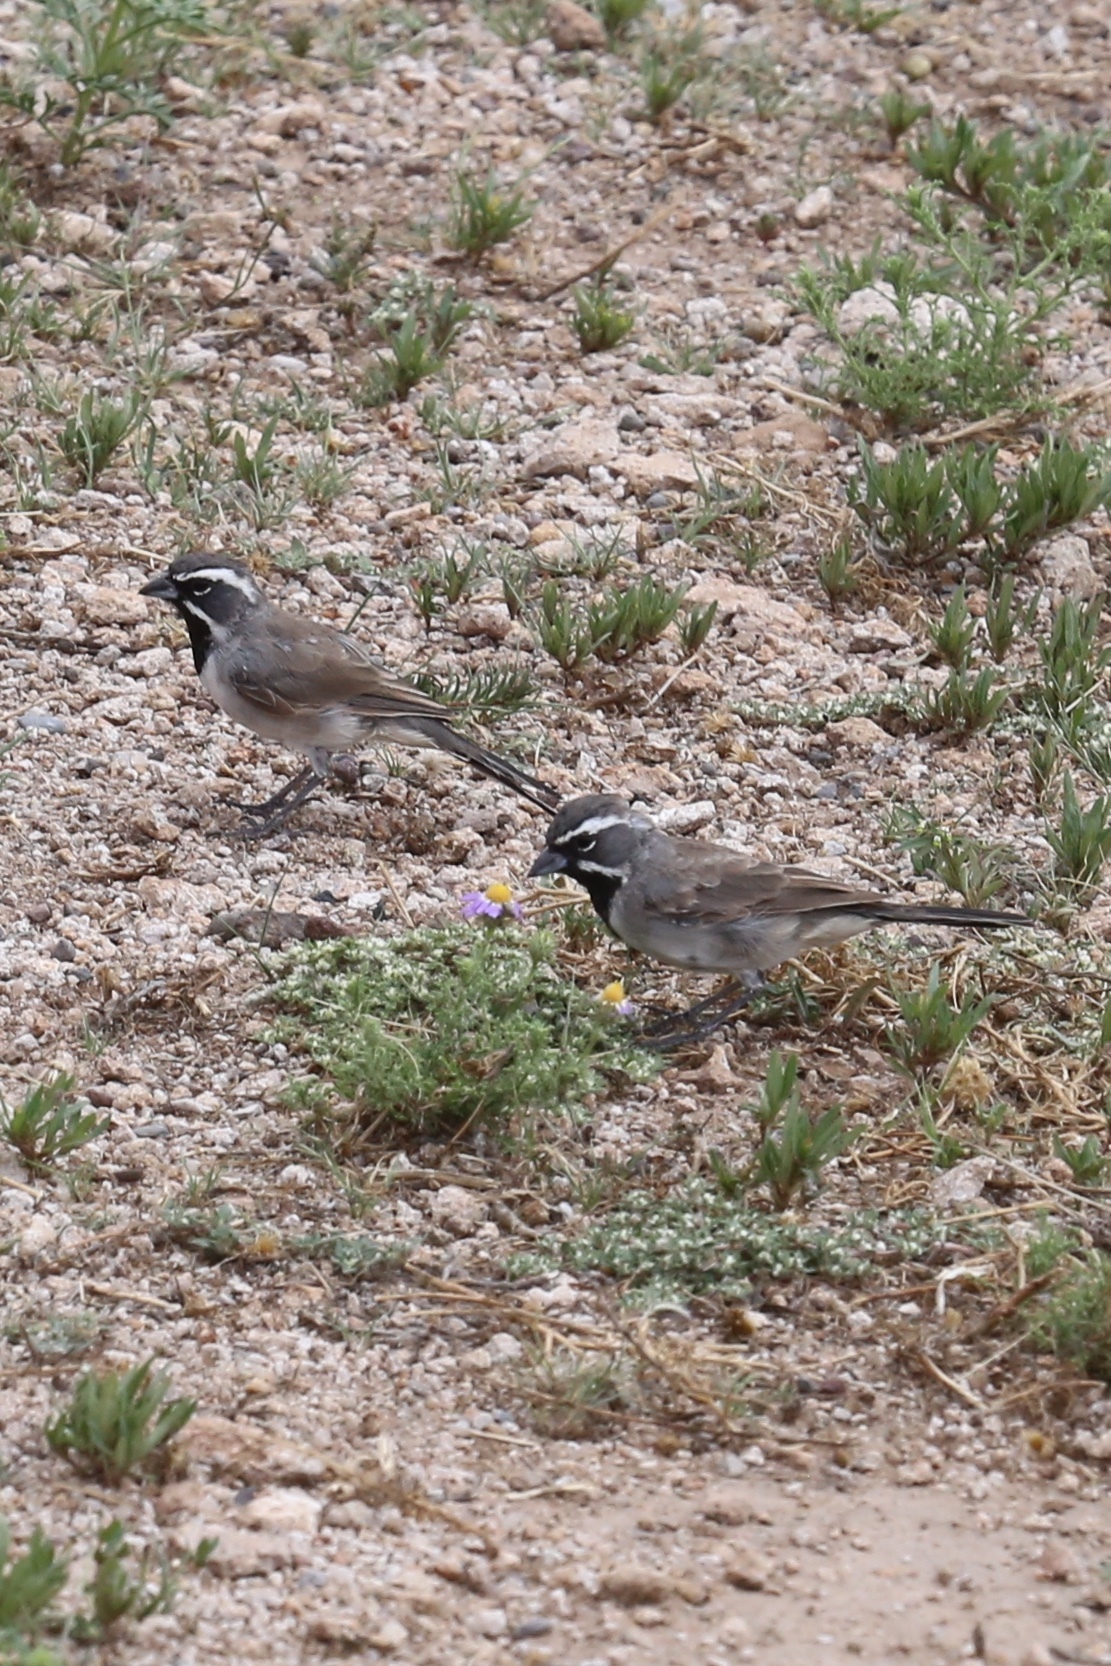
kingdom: Animalia
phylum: Chordata
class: Aves
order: Passeriformes
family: Passerellidae
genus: Amphispiza
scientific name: Amphispiza bilineata
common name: Black-throated sparrow
